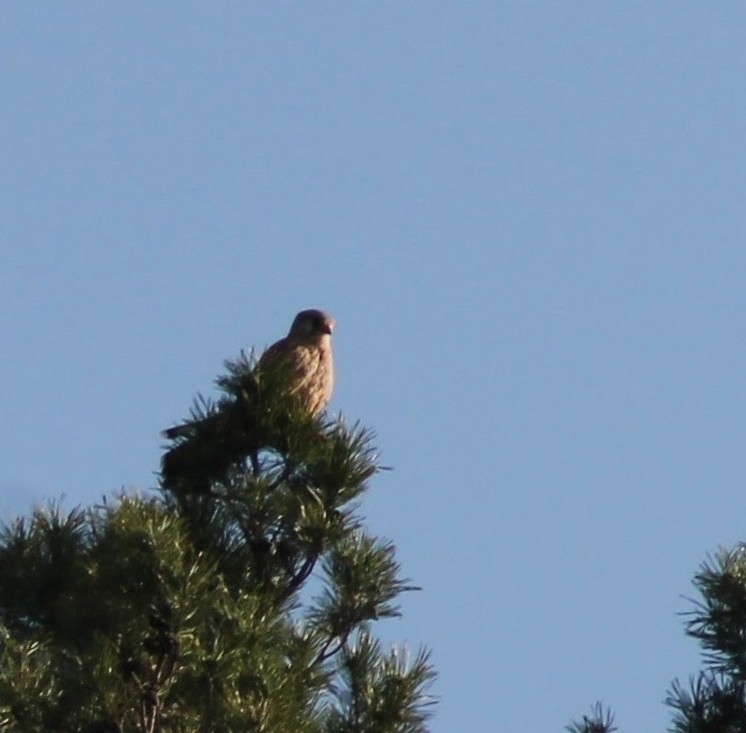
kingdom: Animalia
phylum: Chordata
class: Aves
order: Falconiformes
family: Falconidae
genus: Falco
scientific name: Falco tinnunculus
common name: Common kestrel
